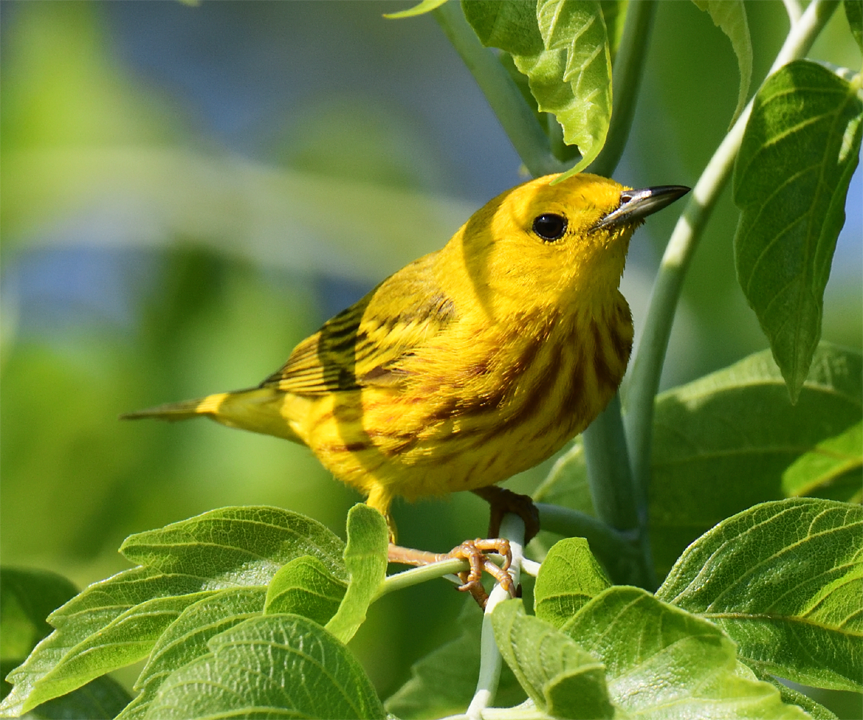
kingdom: Animalia
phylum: Chordata
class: Aves
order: Passeriformes
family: Parulidae
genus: Setophaga
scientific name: Setophaga petechia
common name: Yellow warbler
